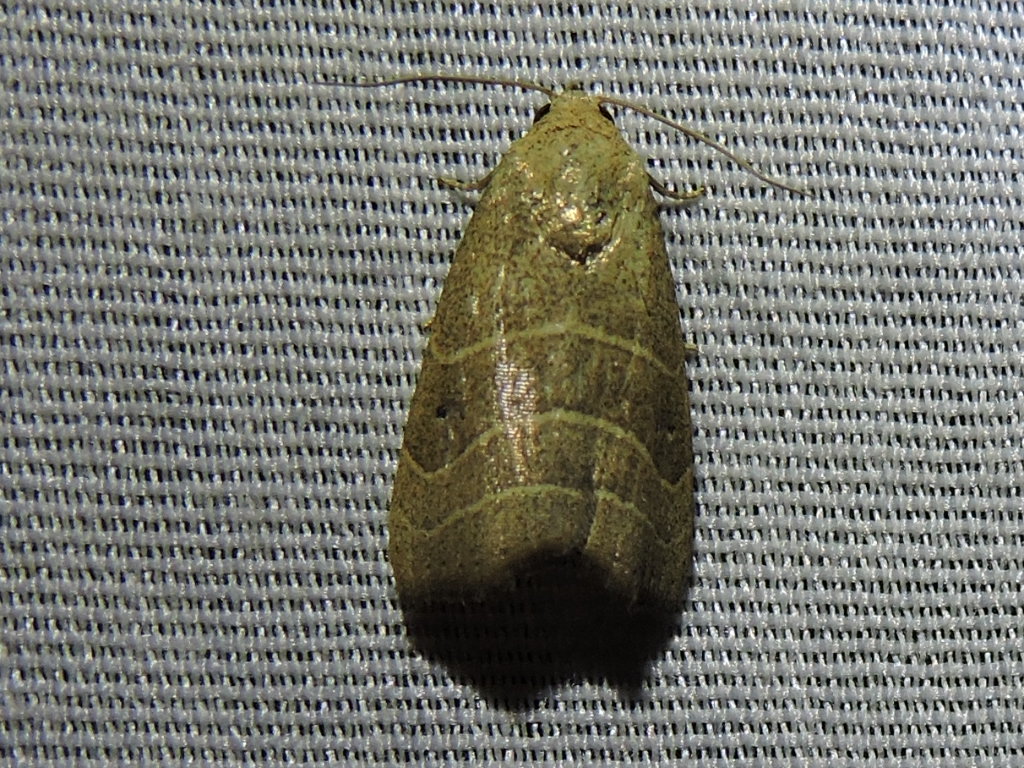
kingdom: Animalia
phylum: Arthropoda
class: Insecta
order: Lepidoptera
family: Noctuidae
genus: Bagisara
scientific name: Bagisara repanda
